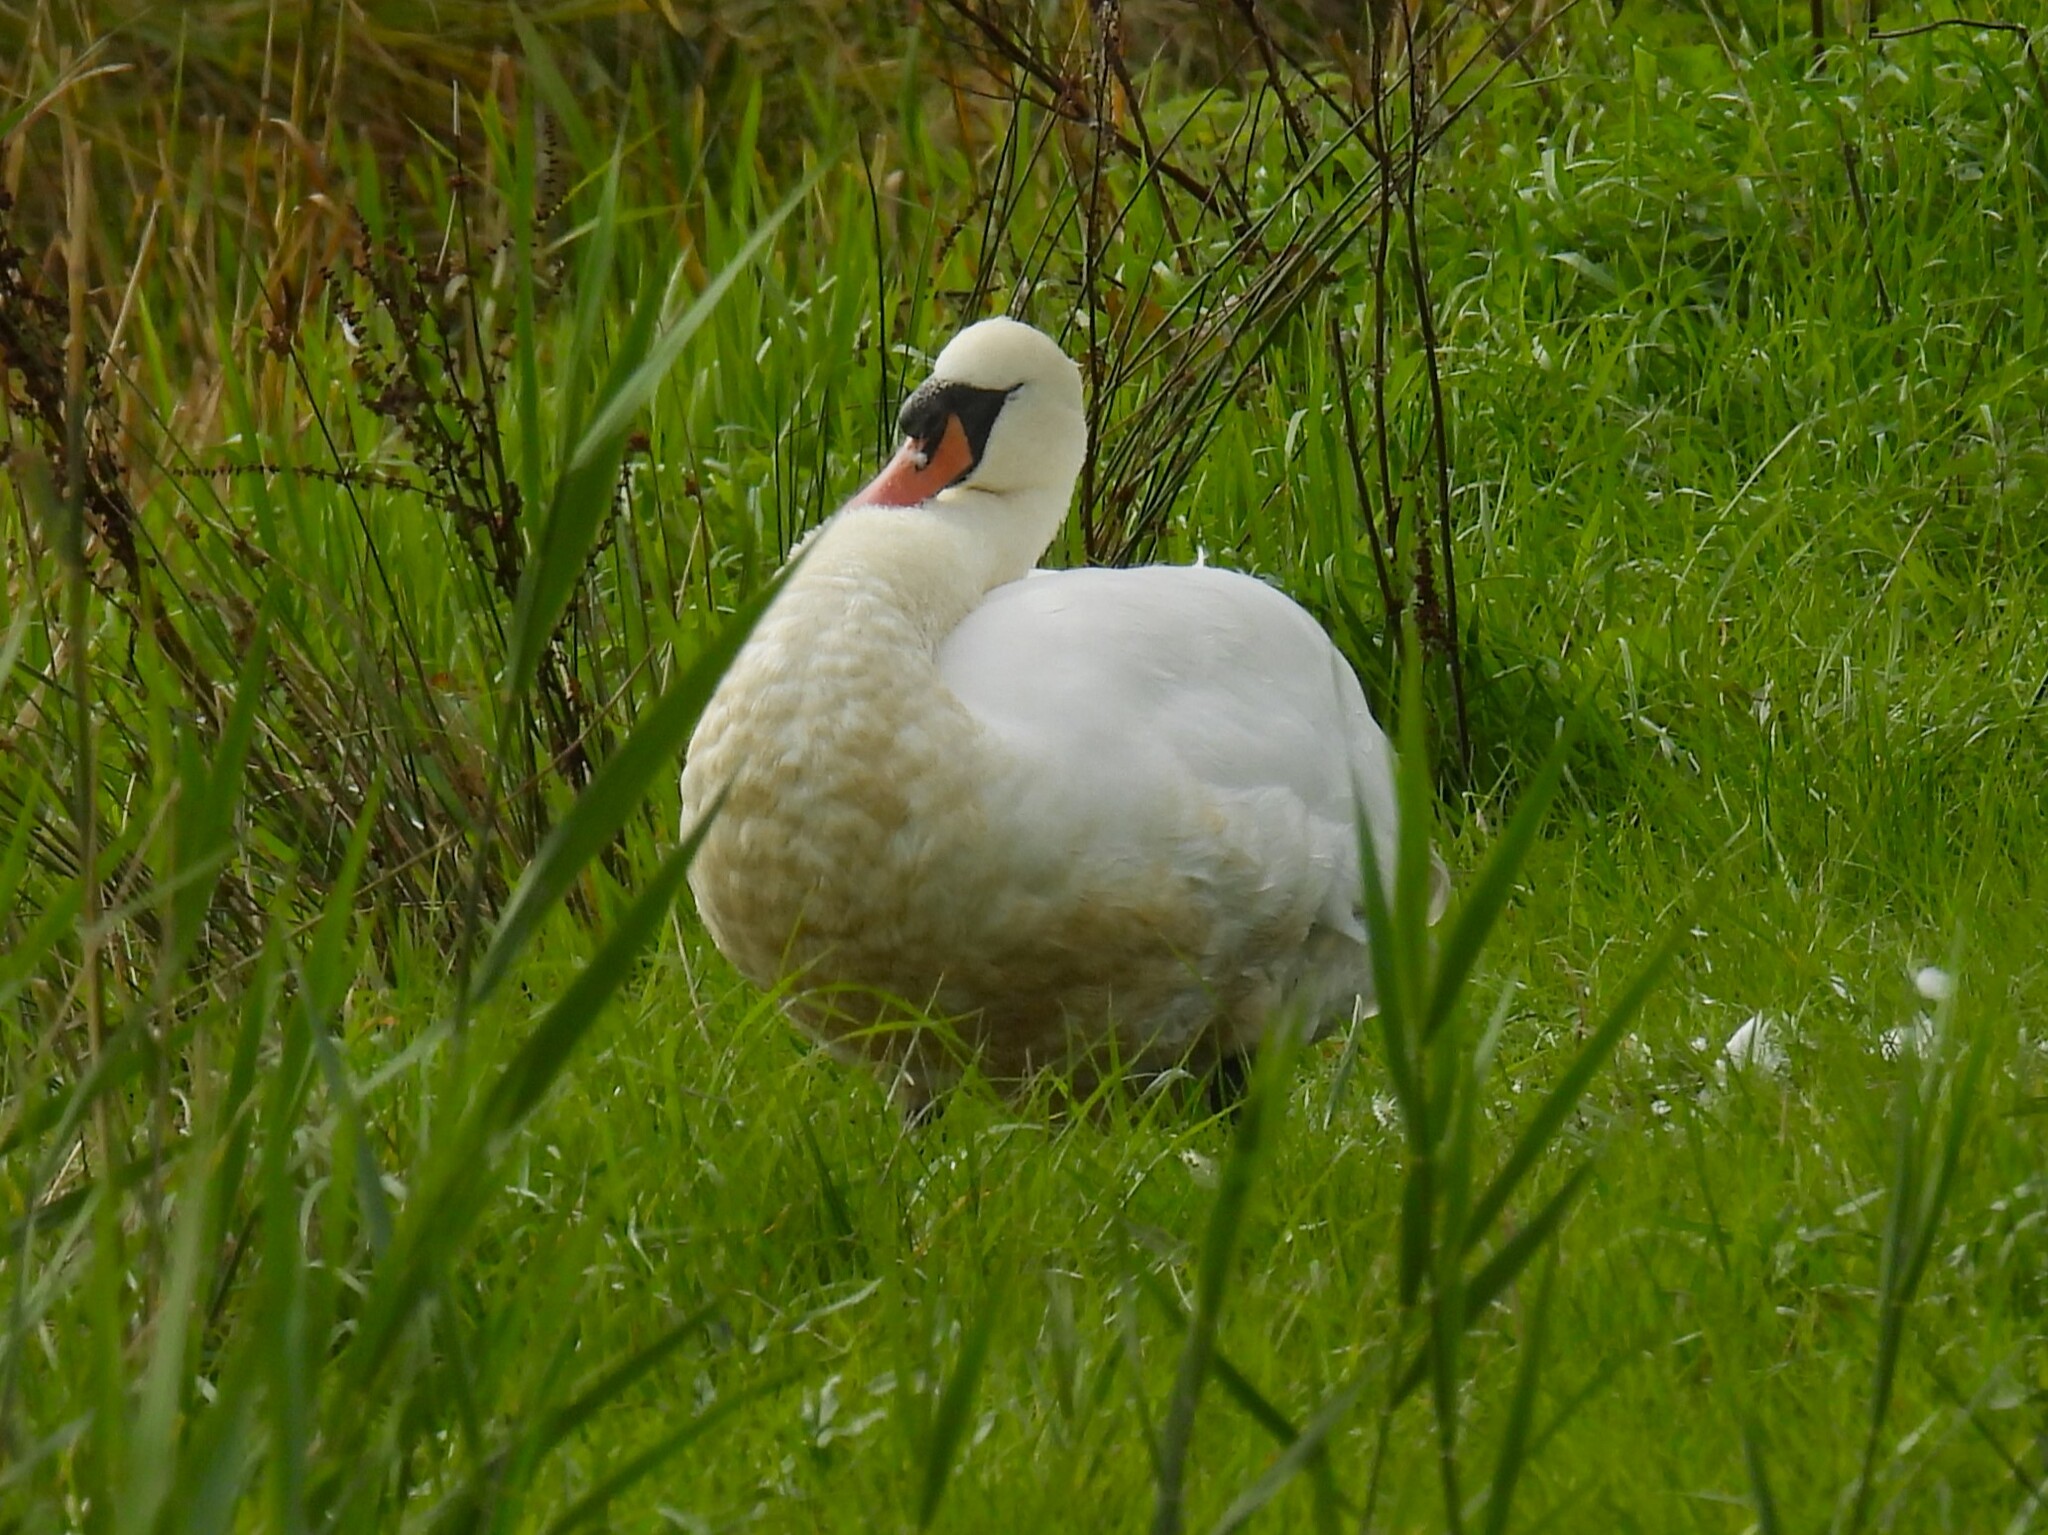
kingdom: Animalia
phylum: Chordata
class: Aves
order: Anseriformes
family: Anatidae
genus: Cygnus
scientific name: Cygnus olor
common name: Mute swan
